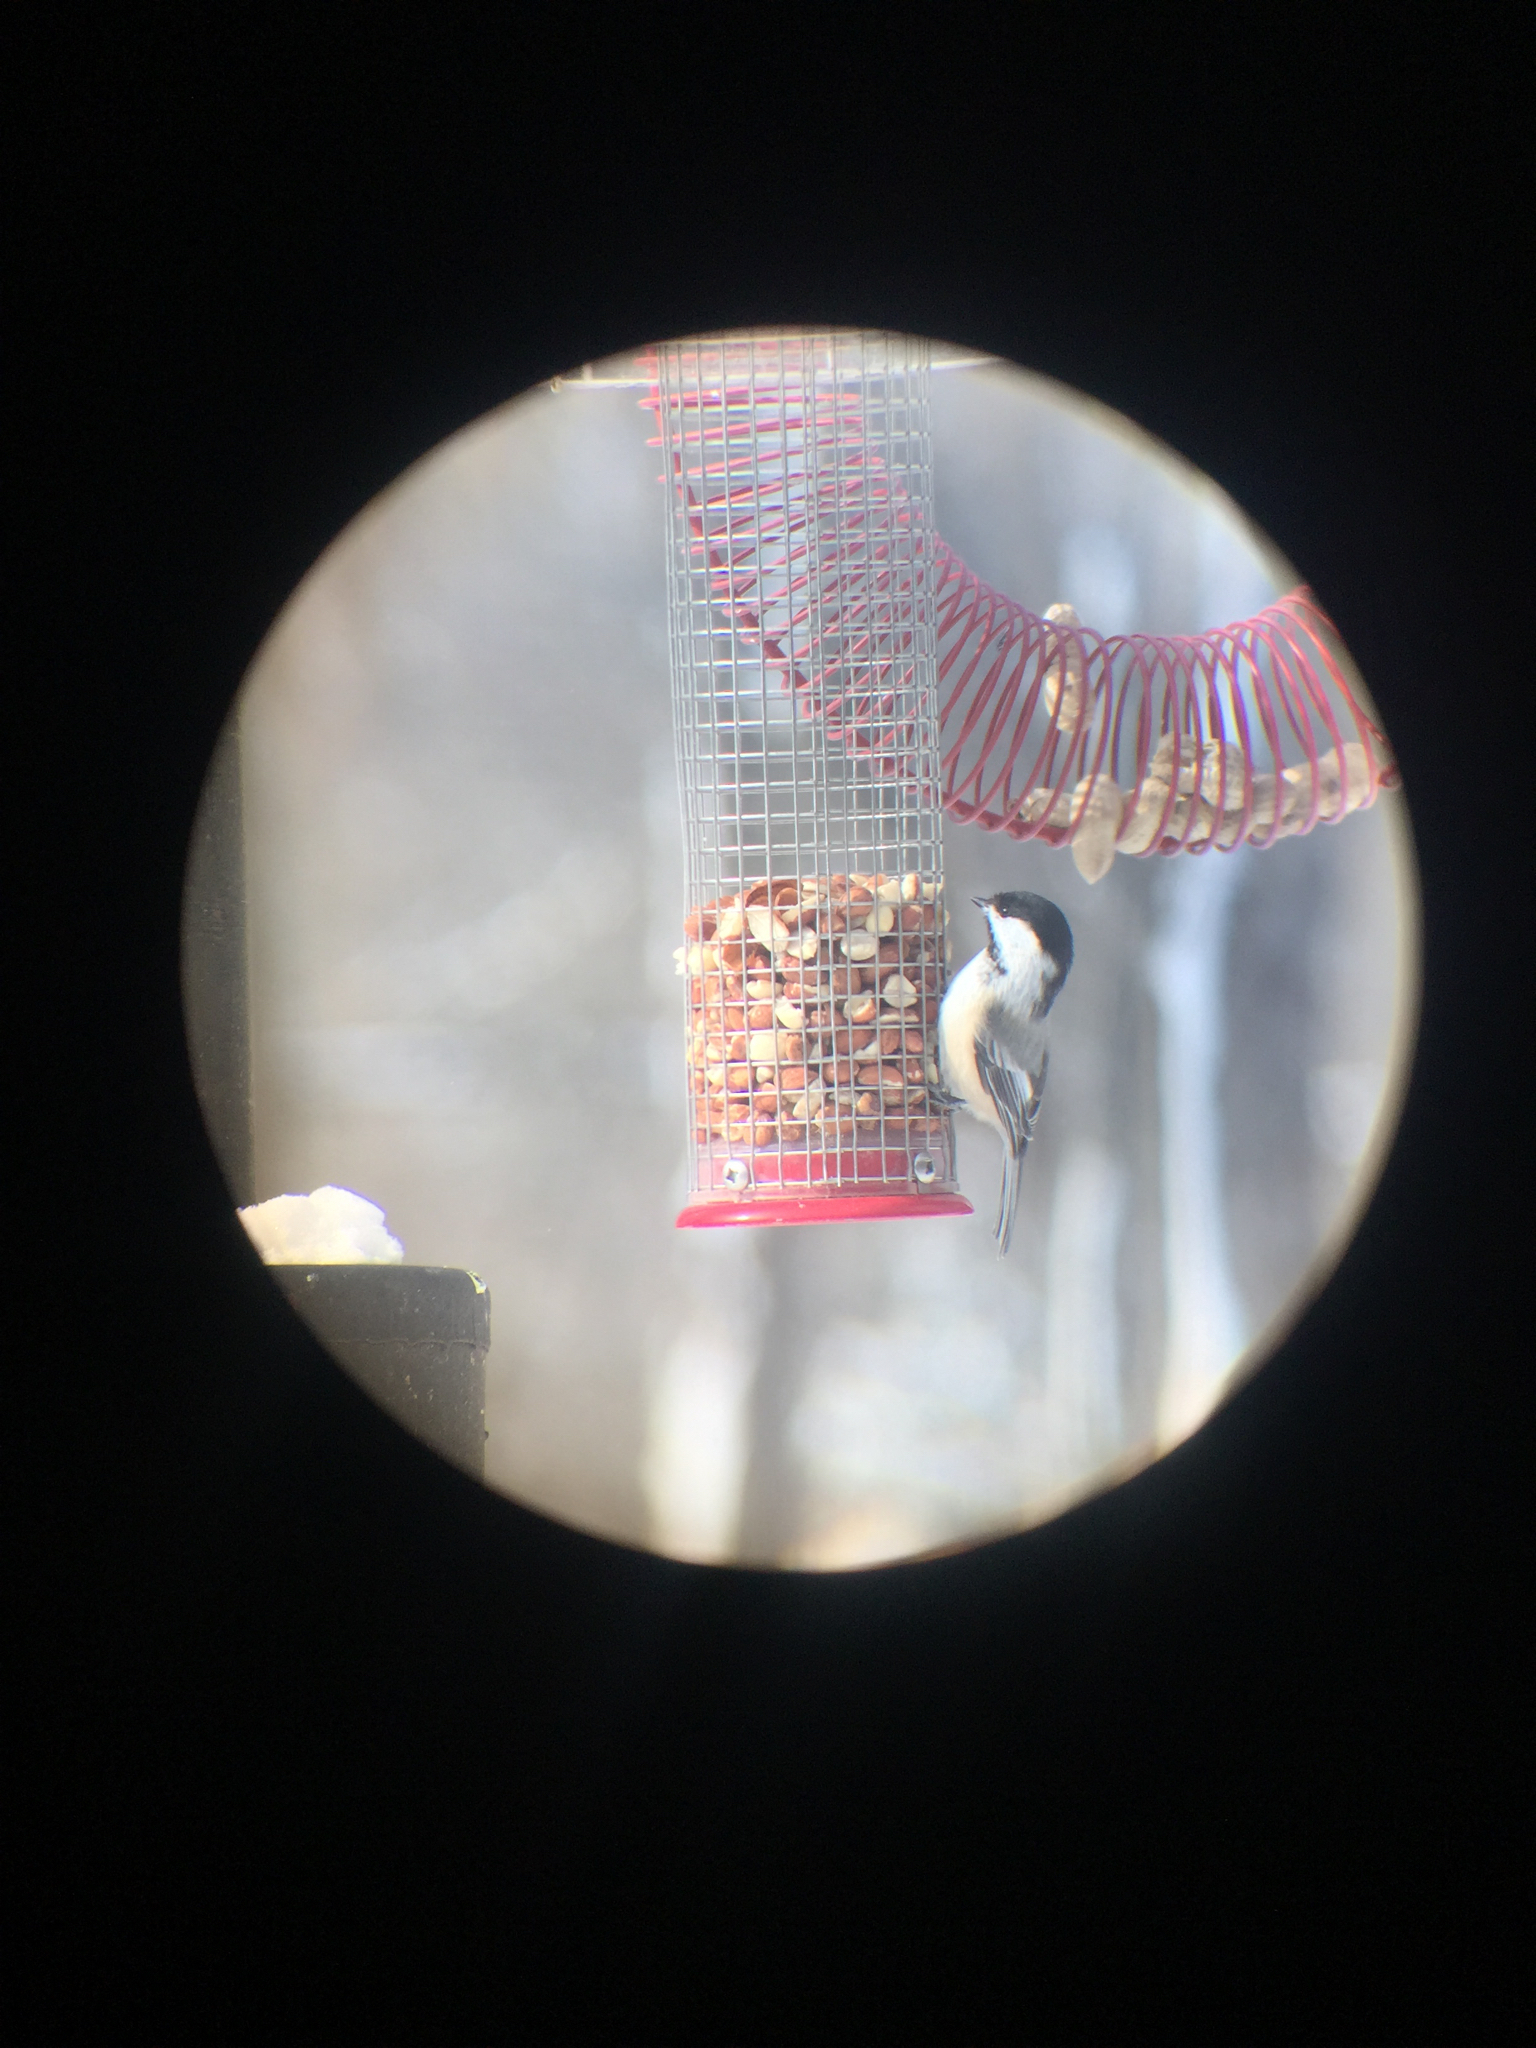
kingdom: Animalia
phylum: Chordata
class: Aves
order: Passeriformes
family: Paridae
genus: Poecile
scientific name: Poecile atricapillus
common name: Black-capped chickadee
